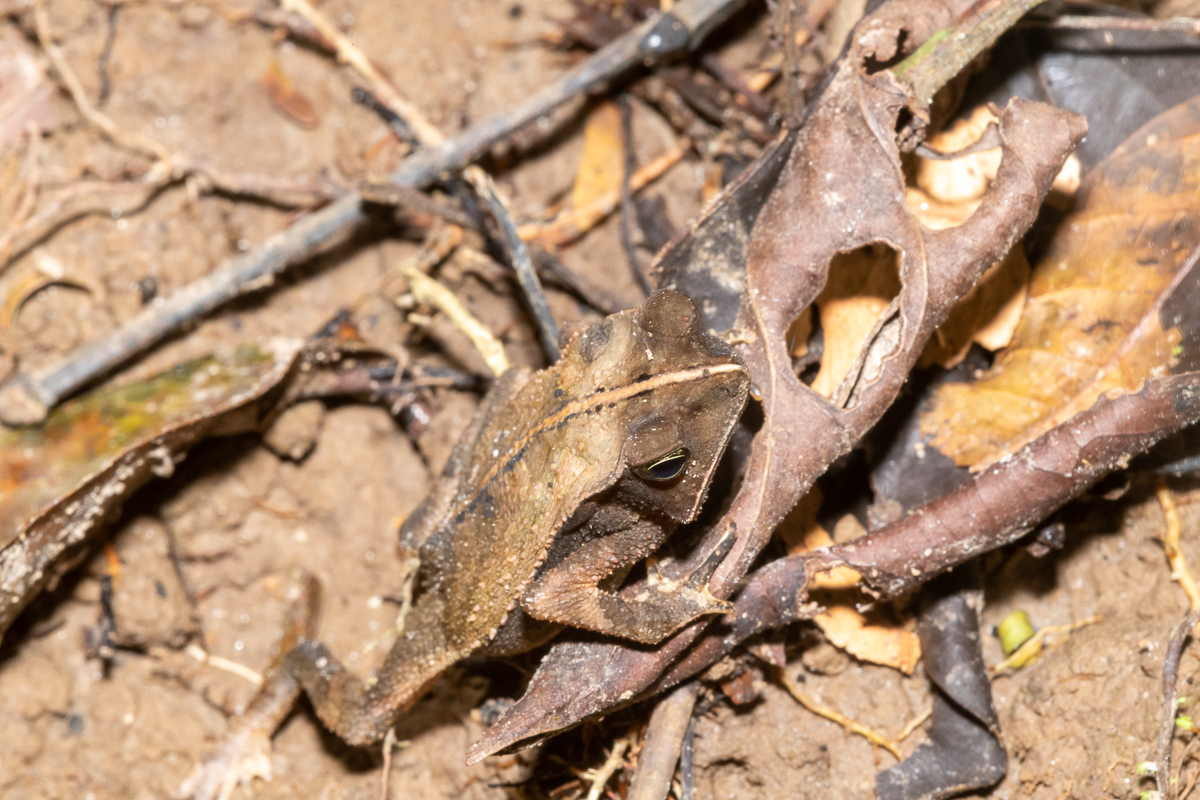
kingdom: Animalia
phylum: Chordata
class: Amphibia
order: Anura
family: Bufonidae
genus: Rhinella
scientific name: Rhinella margaritifera
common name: Mitred toad
